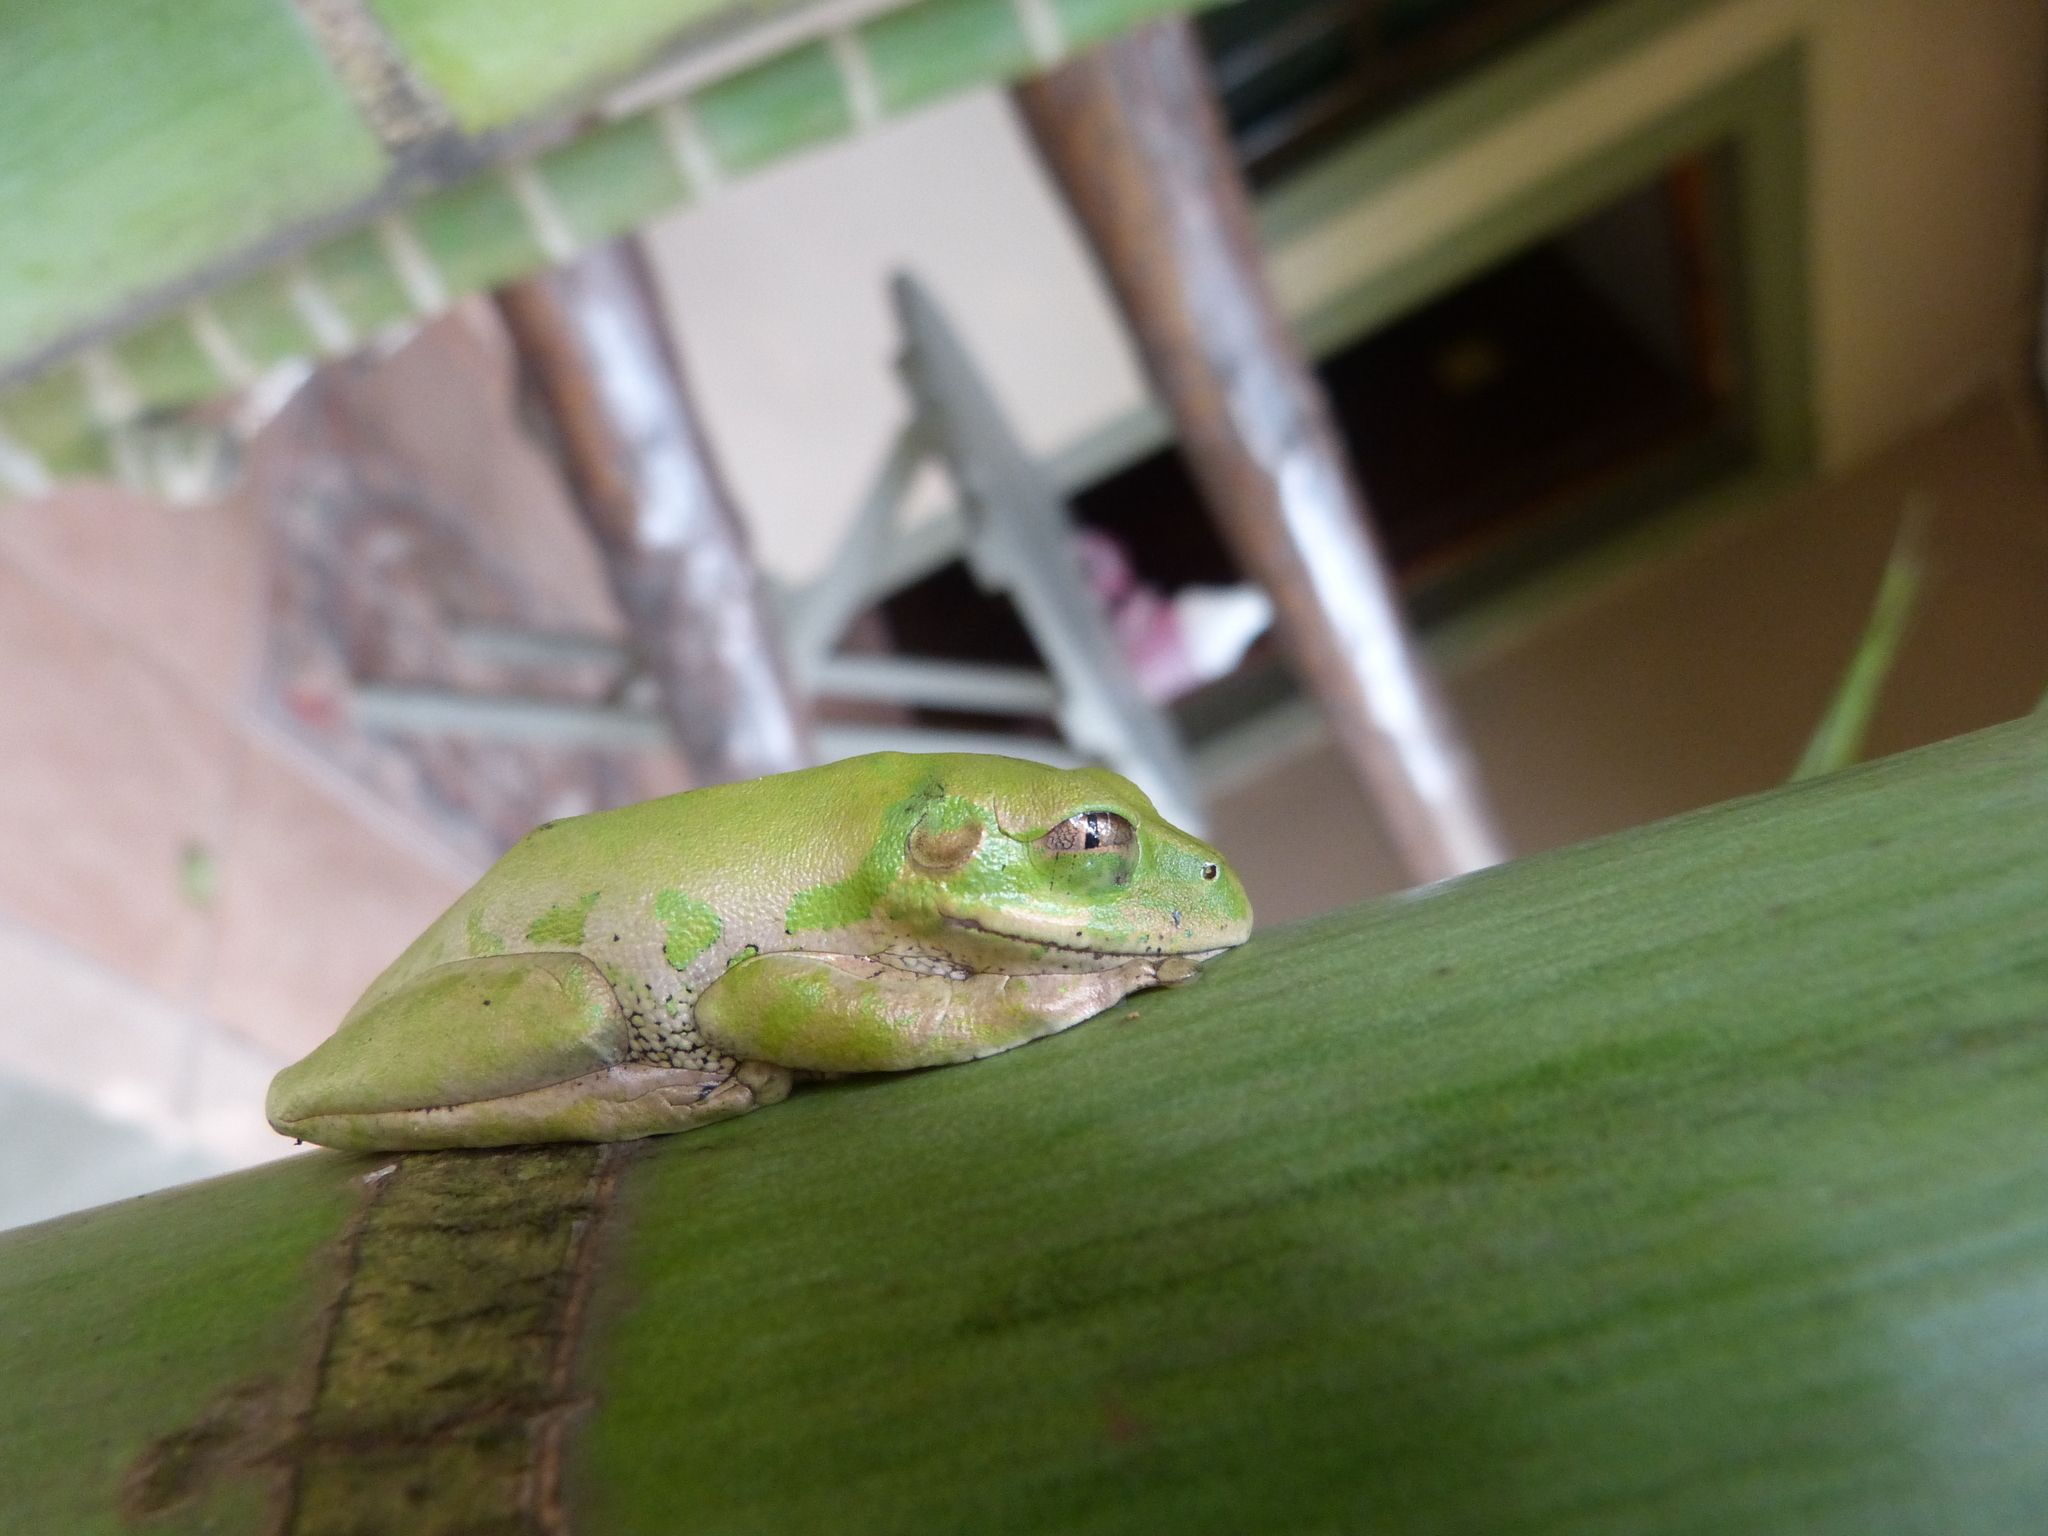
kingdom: Animalia
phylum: Chordata
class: Amphibia
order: Anura
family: Arthroleptidae
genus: Leptopelis
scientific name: Leptopelis natalensis
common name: Natal tree frog
